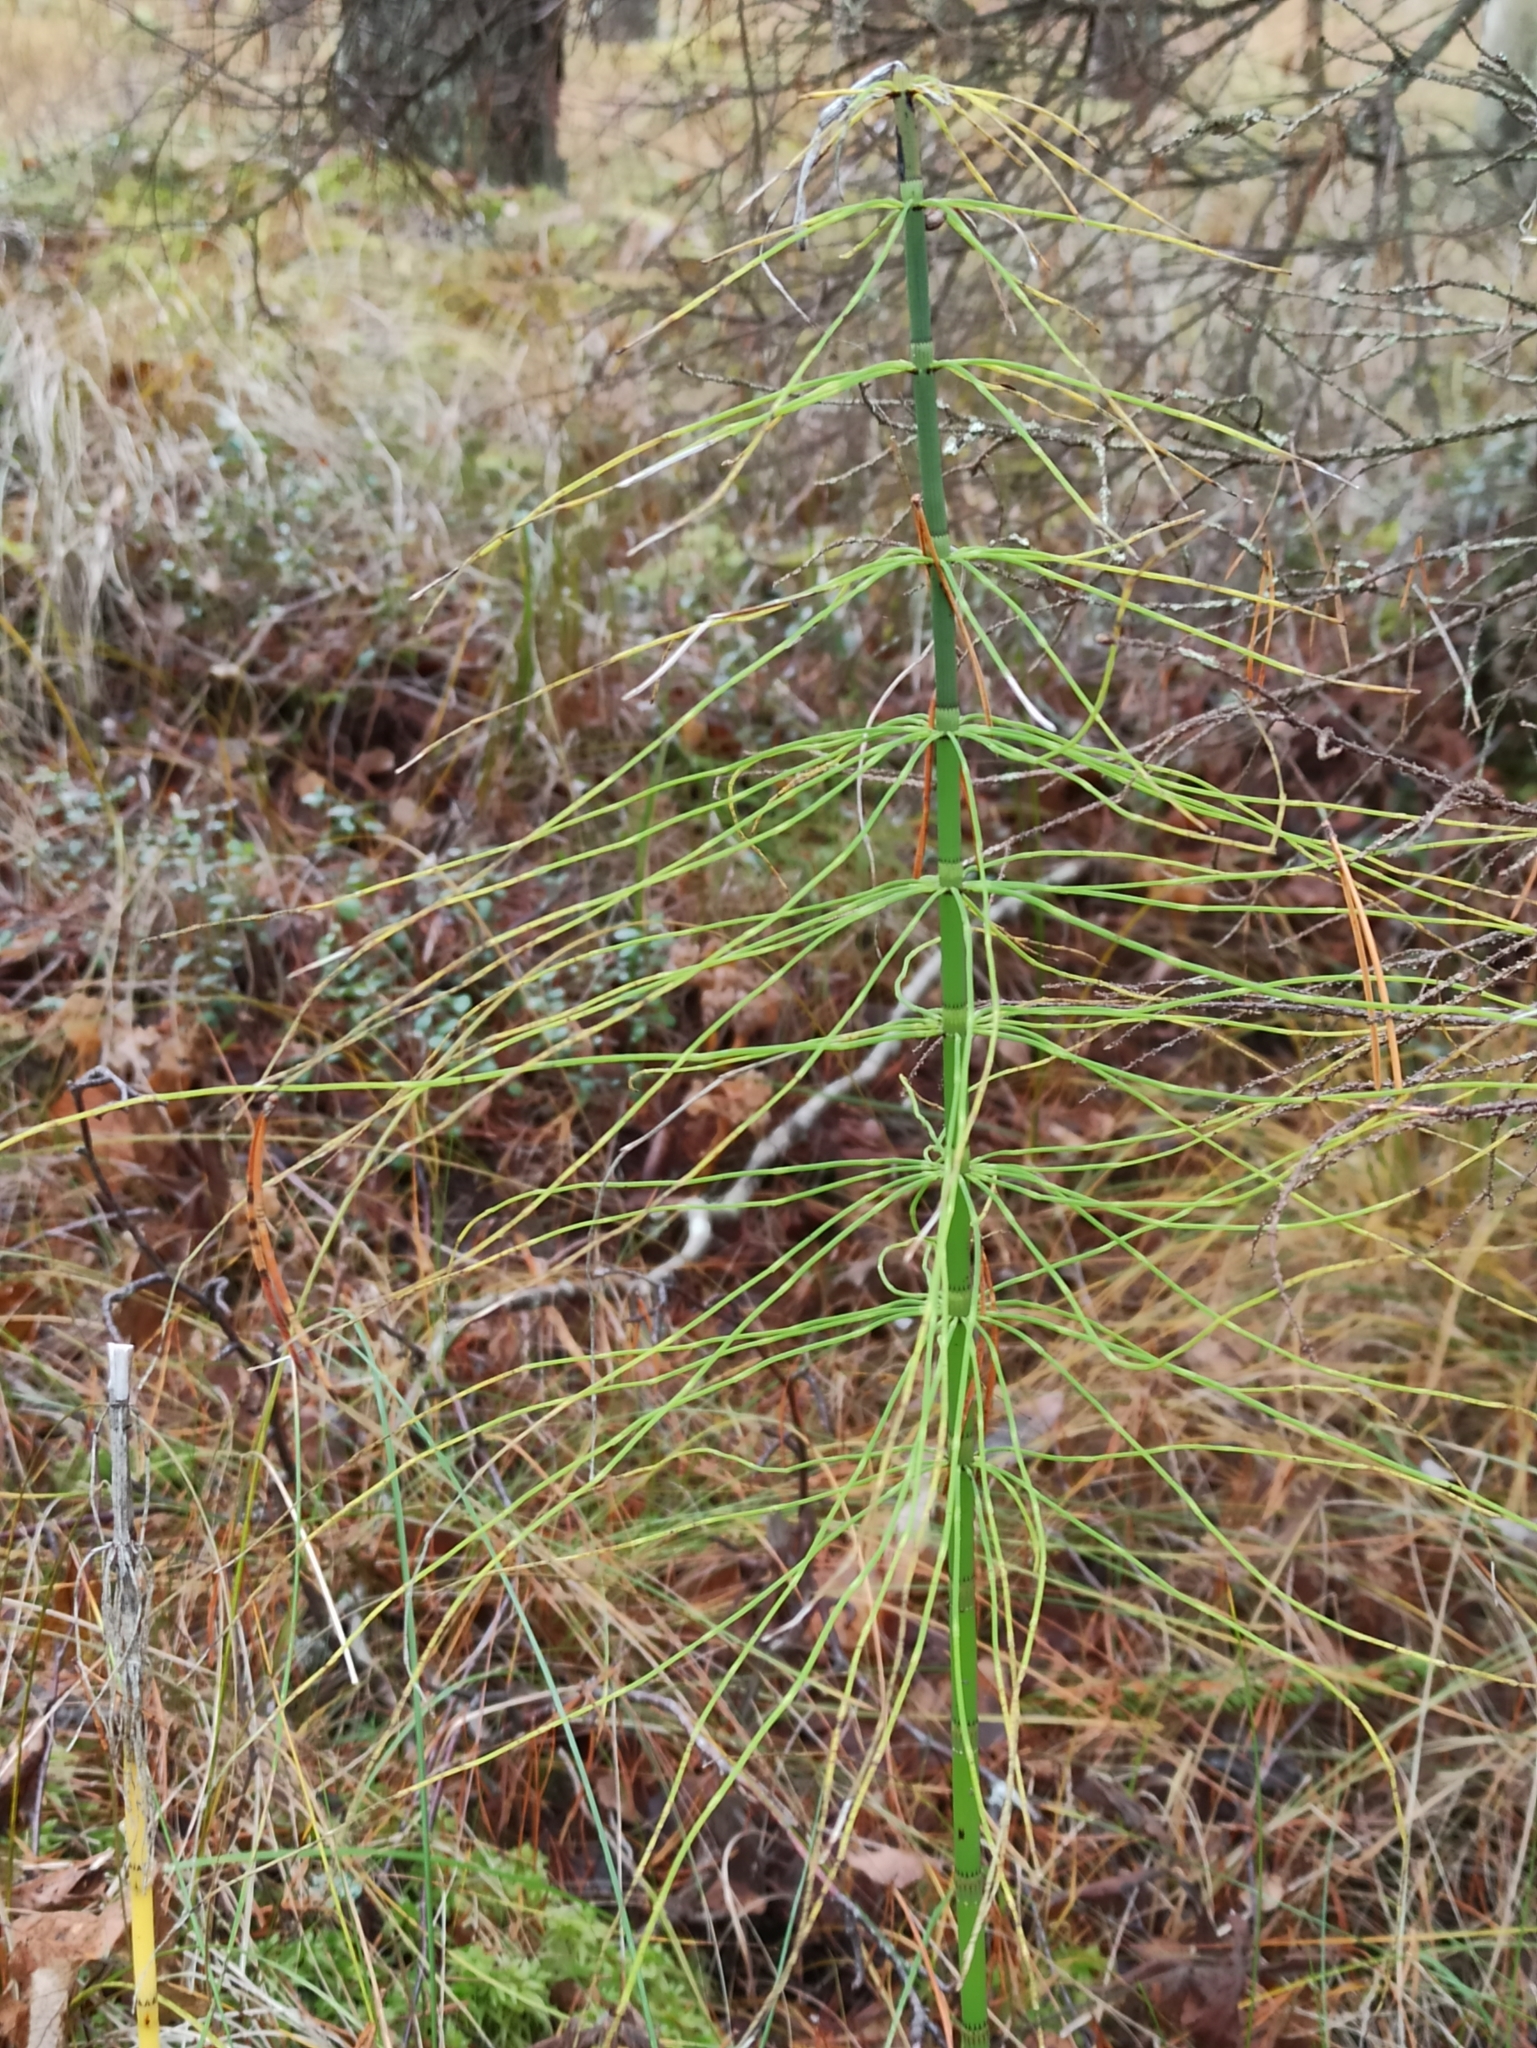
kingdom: Plantae
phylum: Tracheophyta
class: Polypodiopsida
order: Equisetales
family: Equisetaceae
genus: Equisetum
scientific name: Equisetum fluviatile
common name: Water horsetail
